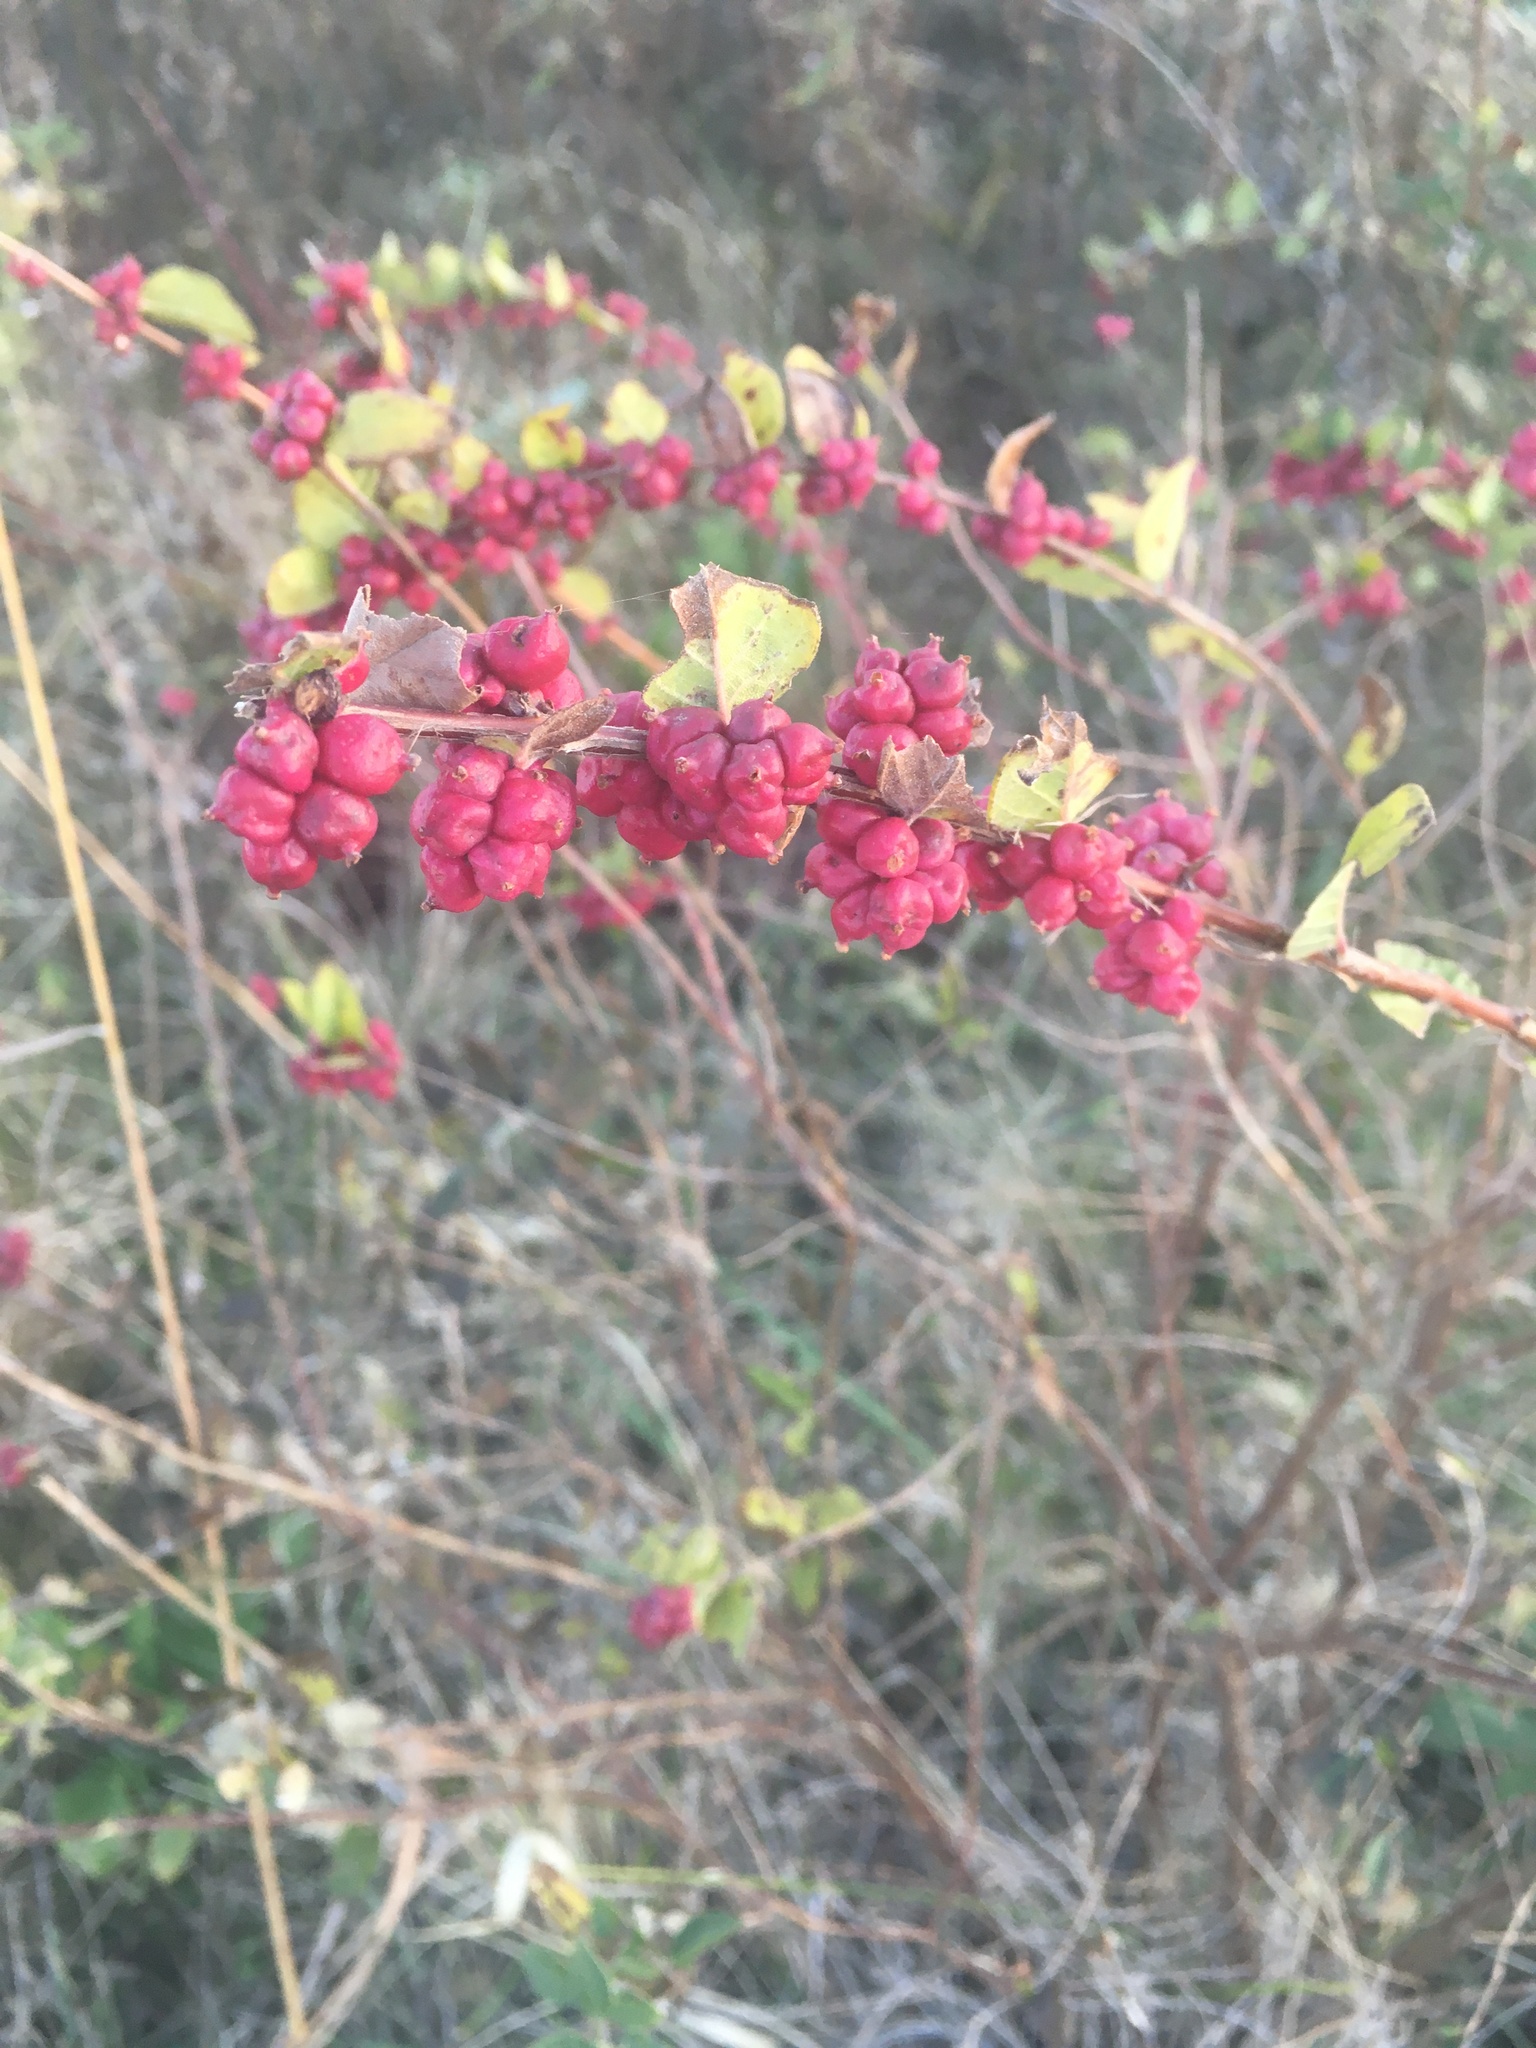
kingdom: Plantae
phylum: Tracheophyta
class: Magnoliopsida
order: Dipsacales
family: Caprifoliaceae
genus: Symphoricarpos
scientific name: Symphoricarpos orbiculatus
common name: Coralberry
